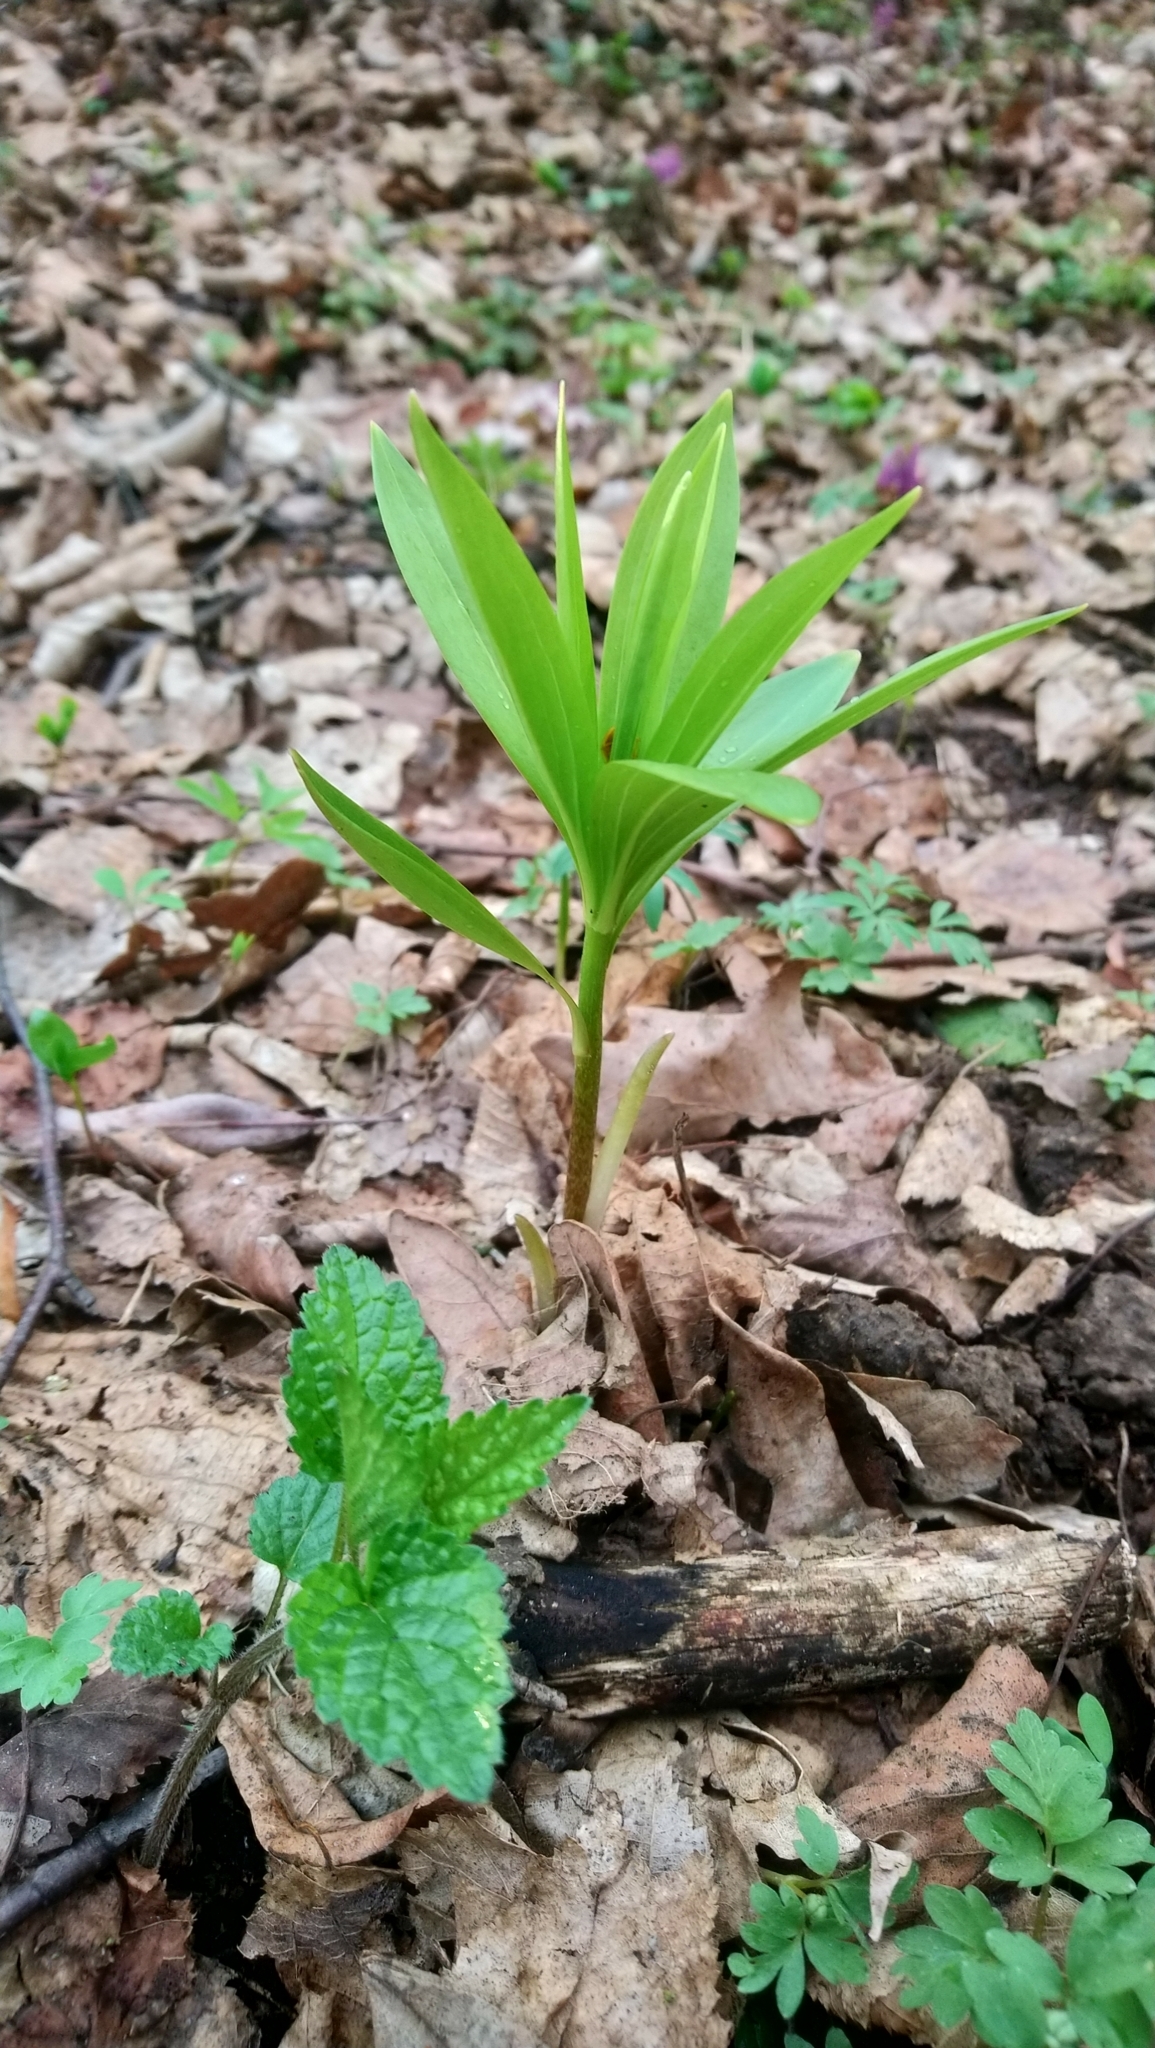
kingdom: Plantae
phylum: Tracheophyta
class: Liliopsida
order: Liliales
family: Liliaceae
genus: Lilium
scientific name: Lilium martagon
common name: Martagon lily
